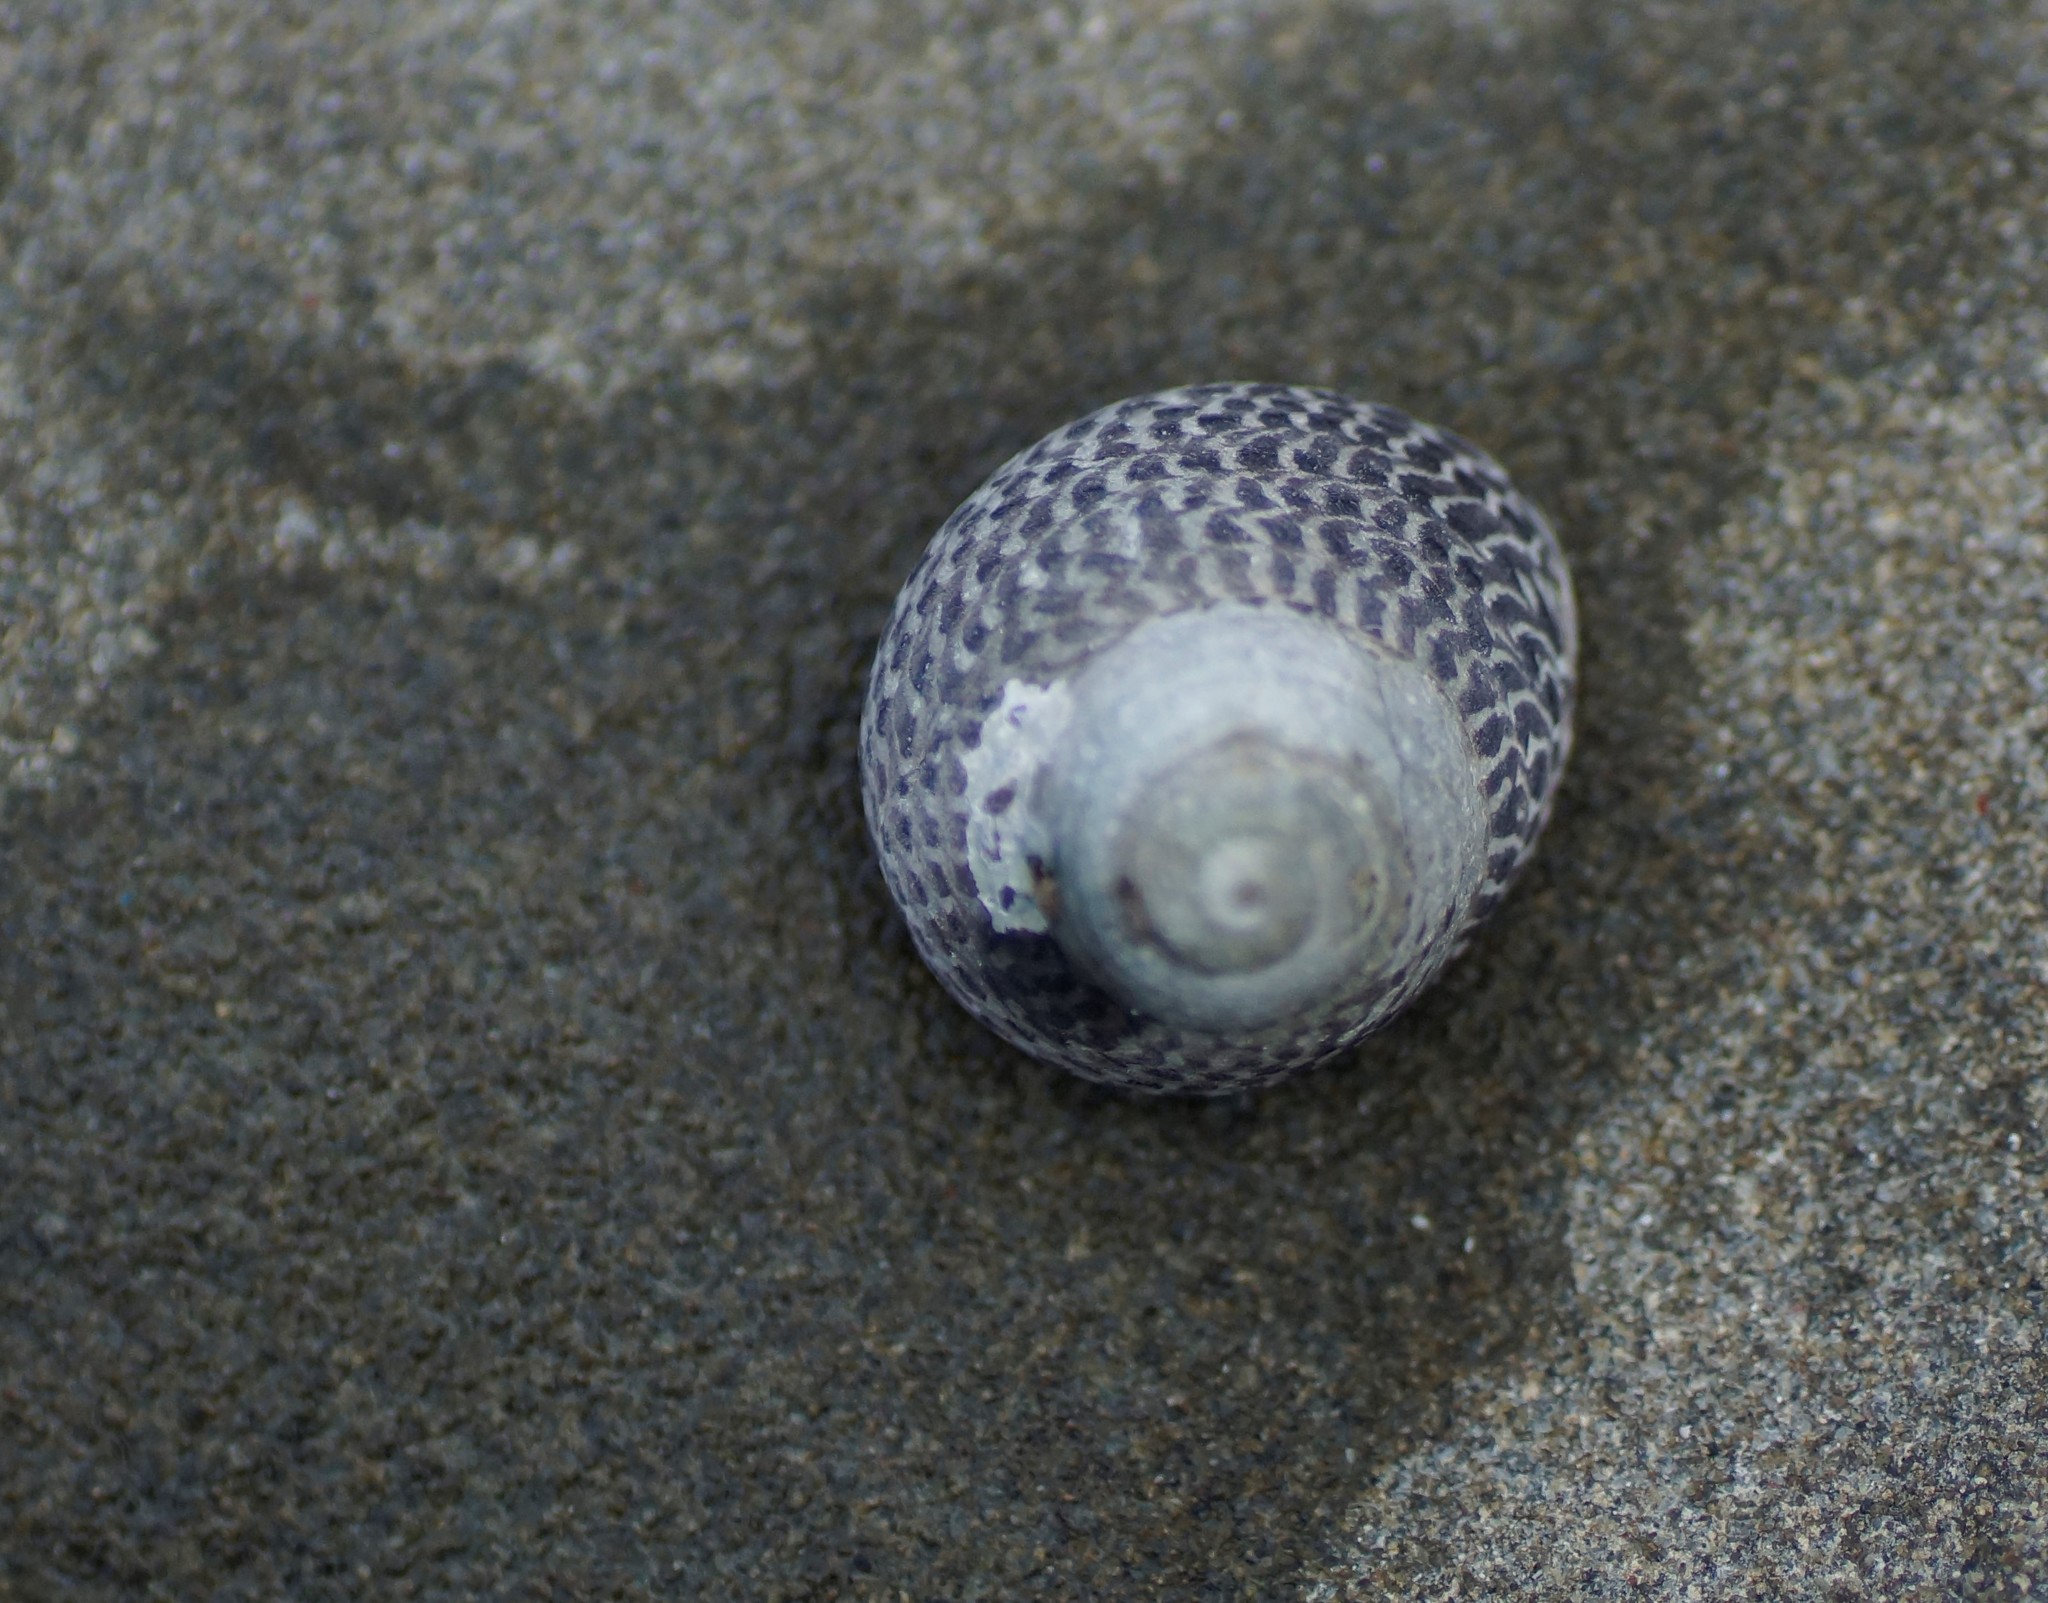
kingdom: Animalia
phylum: Mollusca
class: Gastropoda
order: Trochida
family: Trochidae
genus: Chlorodiloma
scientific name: Chlorodiloma adelaidae
